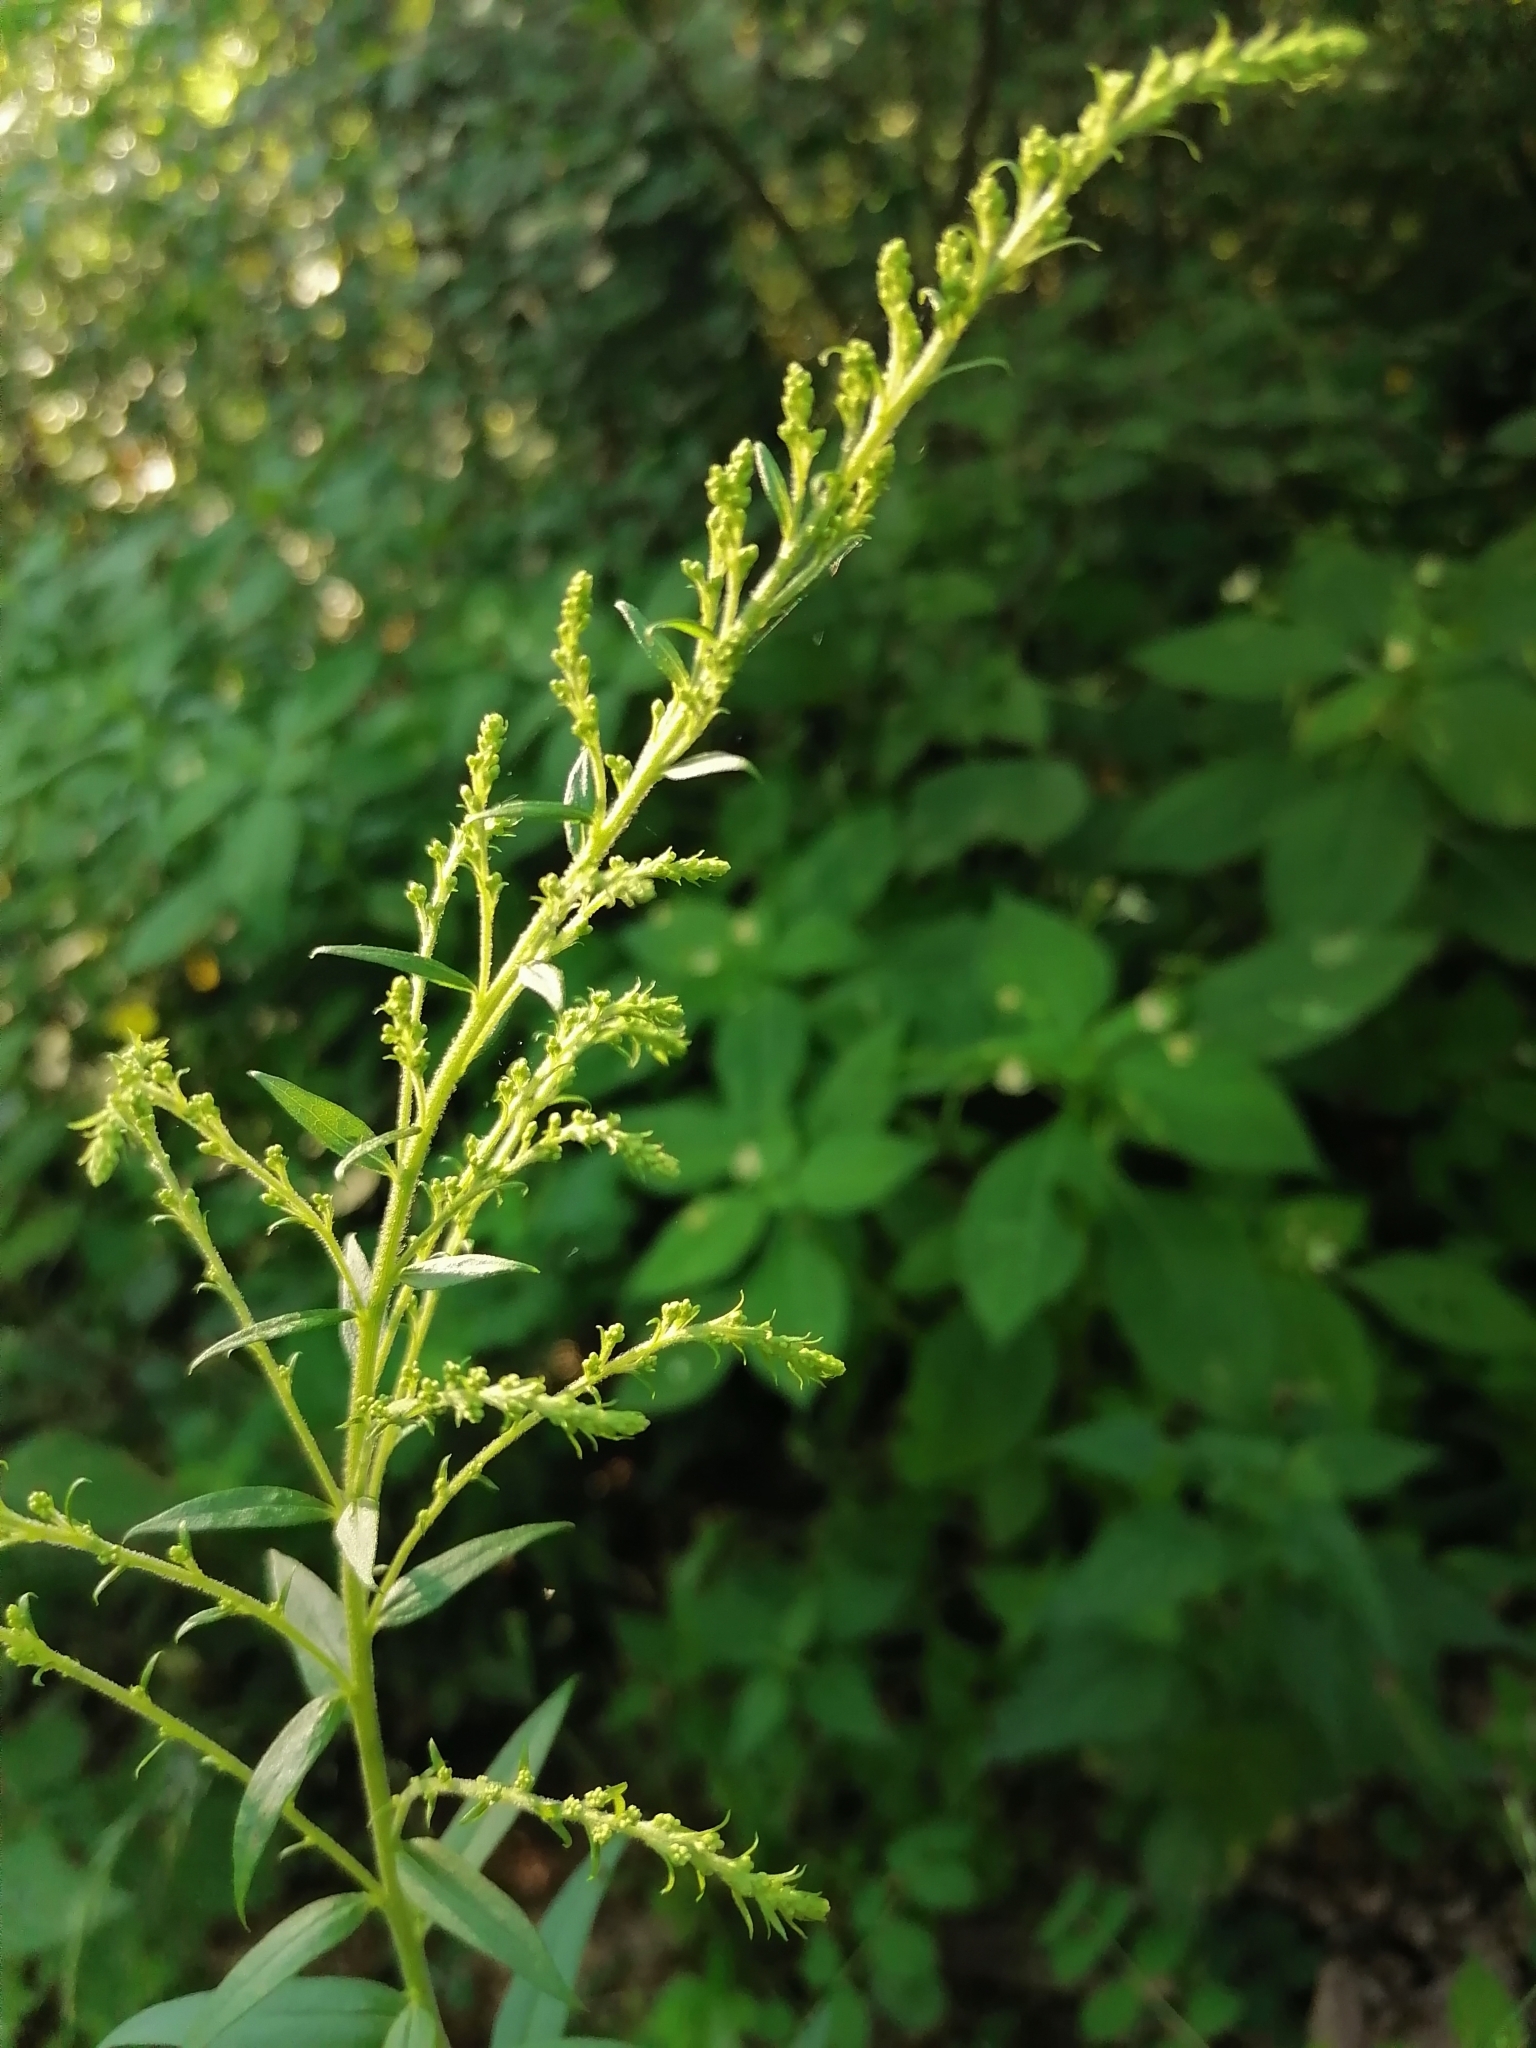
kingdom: Plantae
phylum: Tracheophyta
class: Magnoliopsida
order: Asterales
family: Asteraceae
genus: Solidago
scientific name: Solidago canadensis
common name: Canada goldenrod
